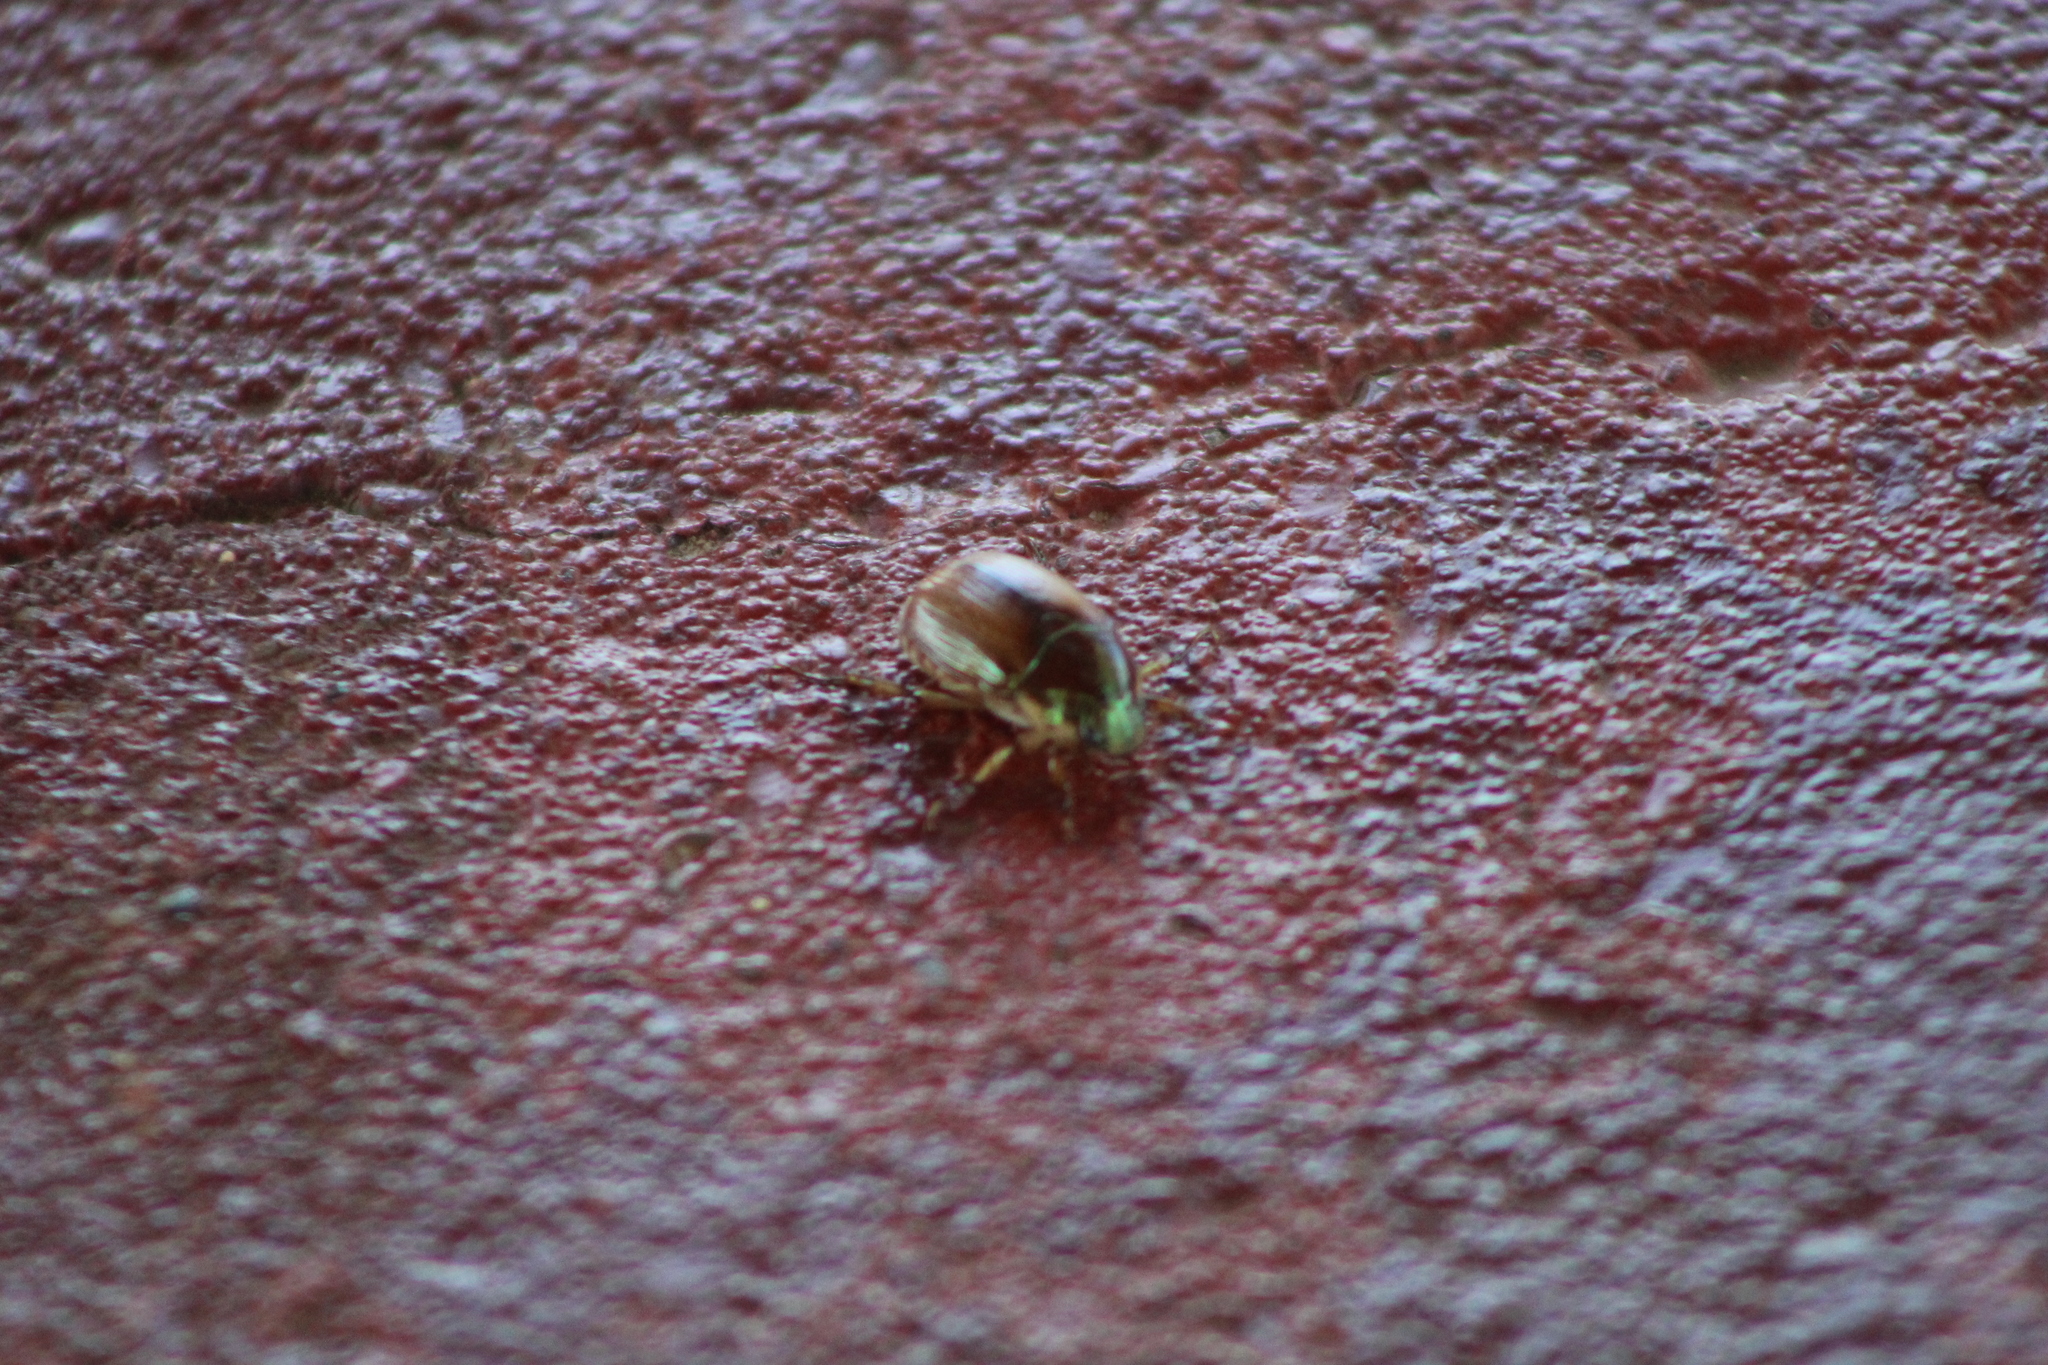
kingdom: Animalia
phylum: Arthropoda
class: Insecta
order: Coleoptera
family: Scarabaeidae
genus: Callistethus
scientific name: Callistethus marginatus
